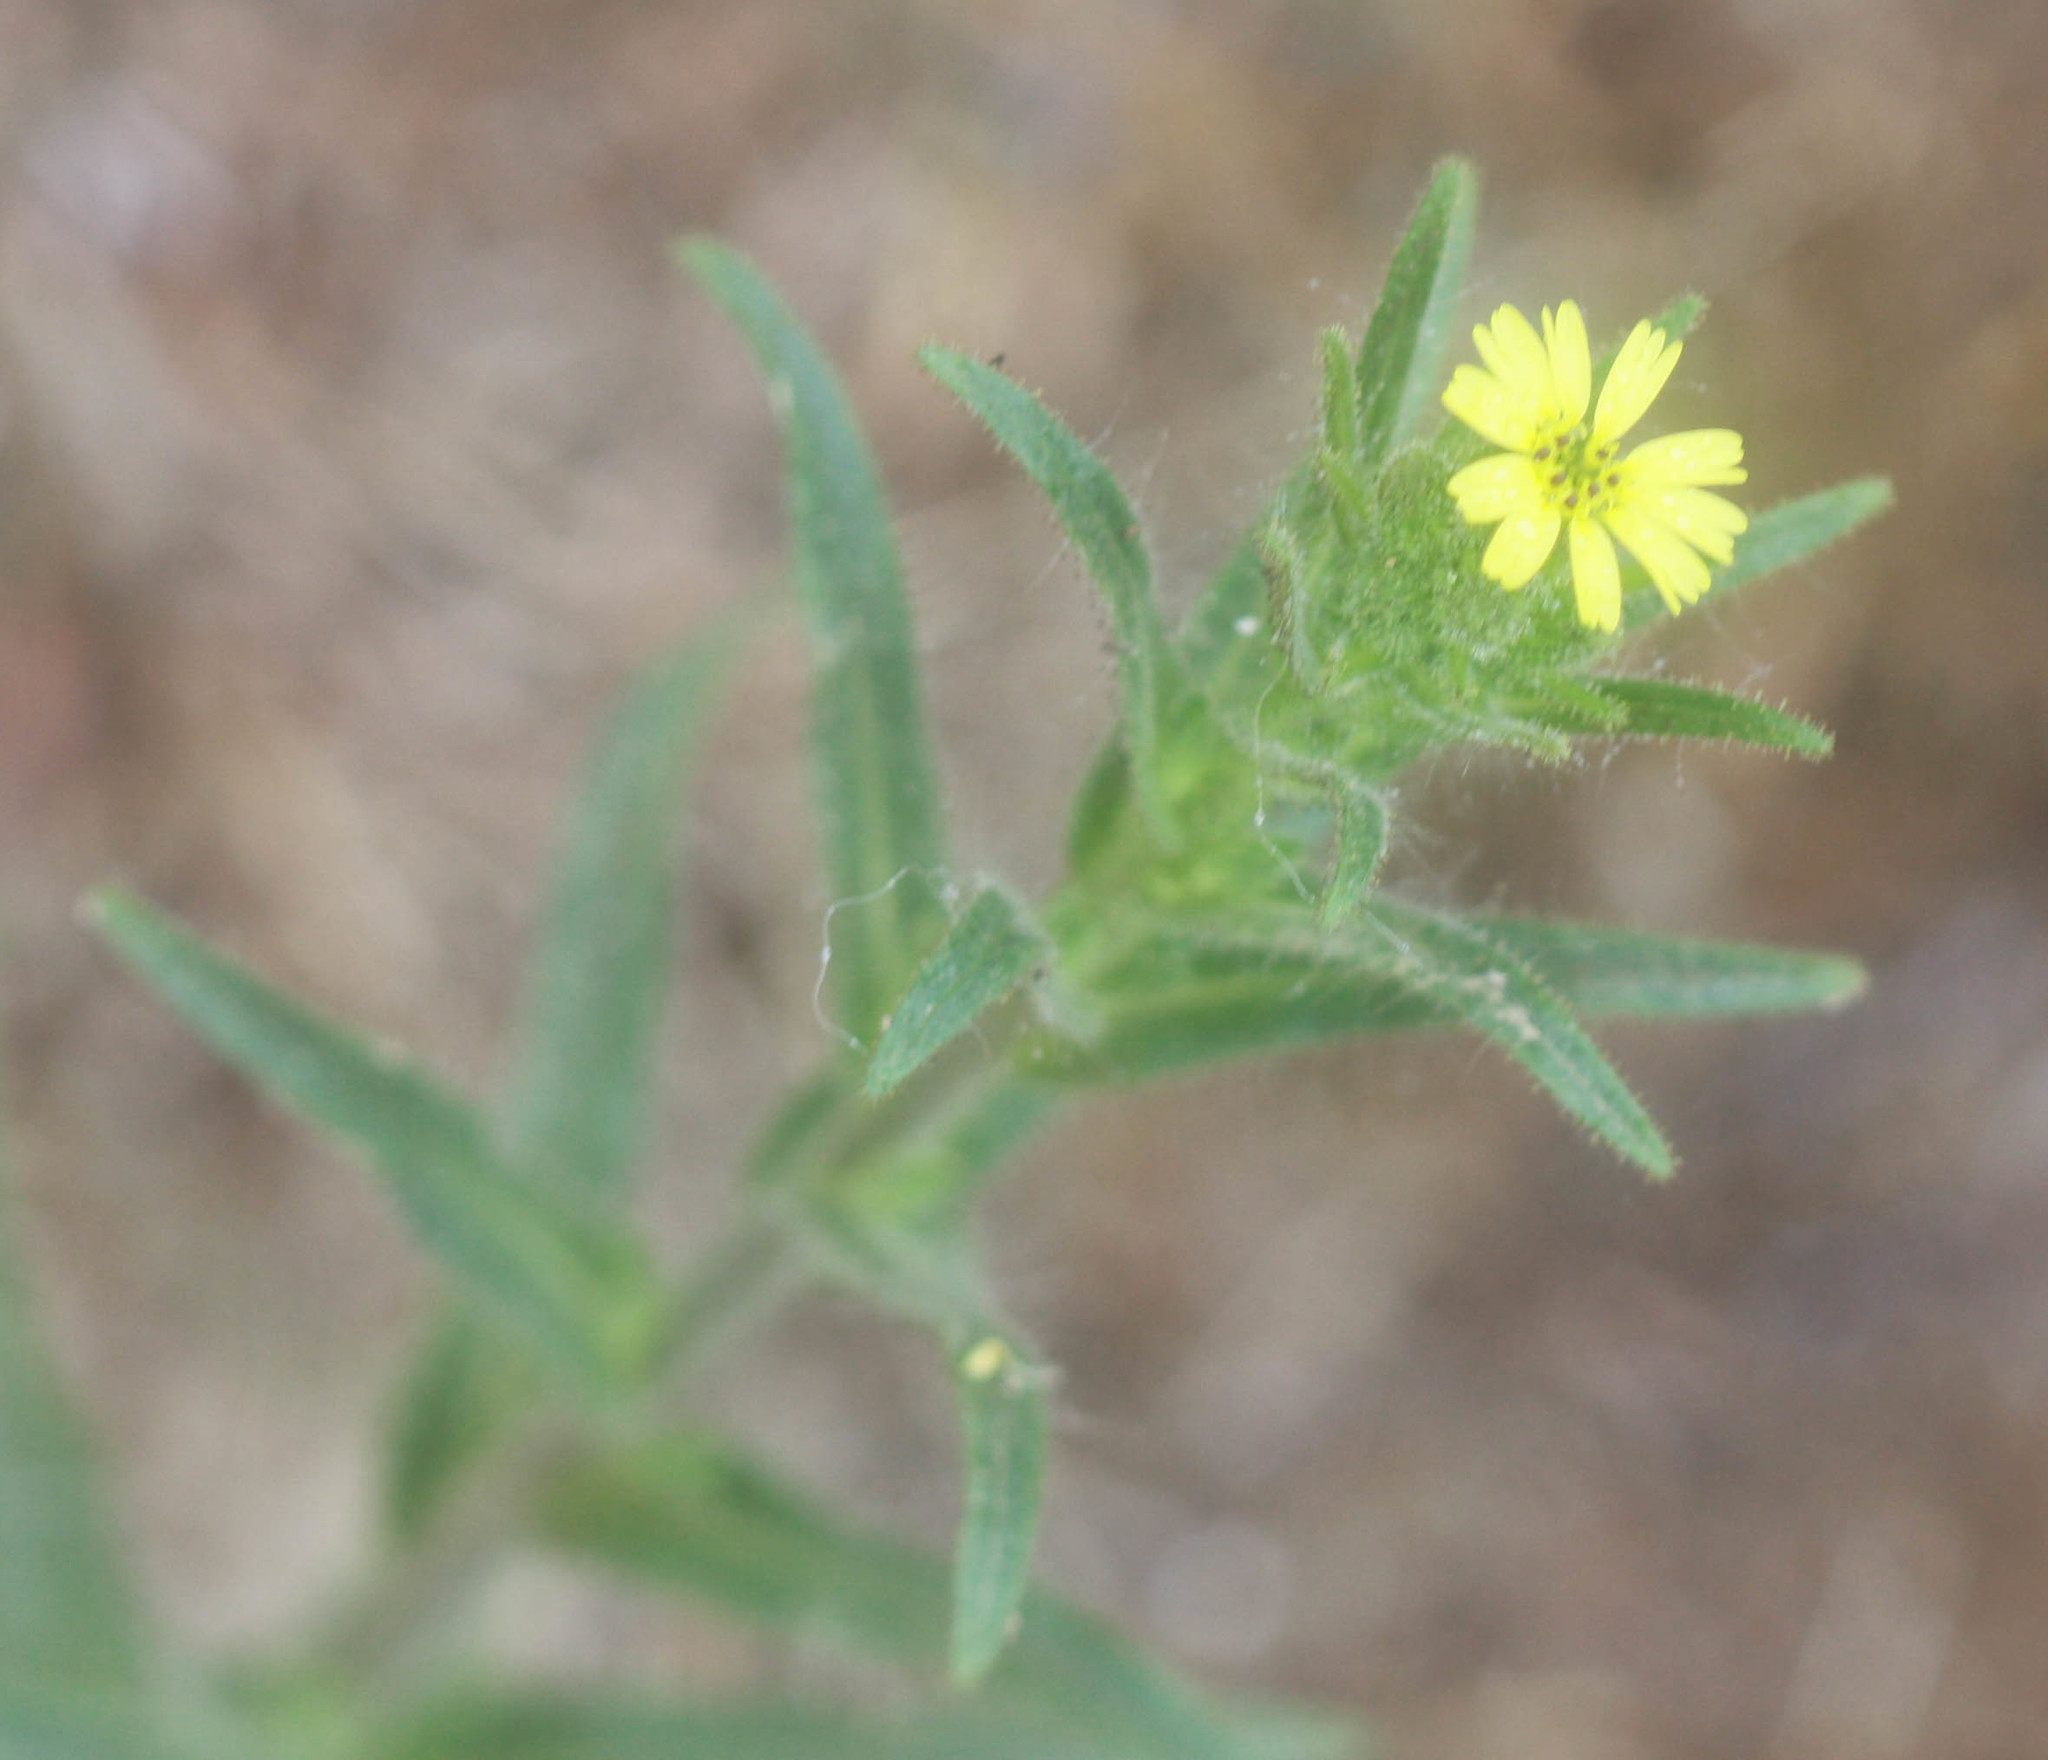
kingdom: Plantae
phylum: Tracheophyta
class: Magnoliopsida
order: Asterales
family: Asteraceae
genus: Madia
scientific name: Madia sativa
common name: Coast tarweed
